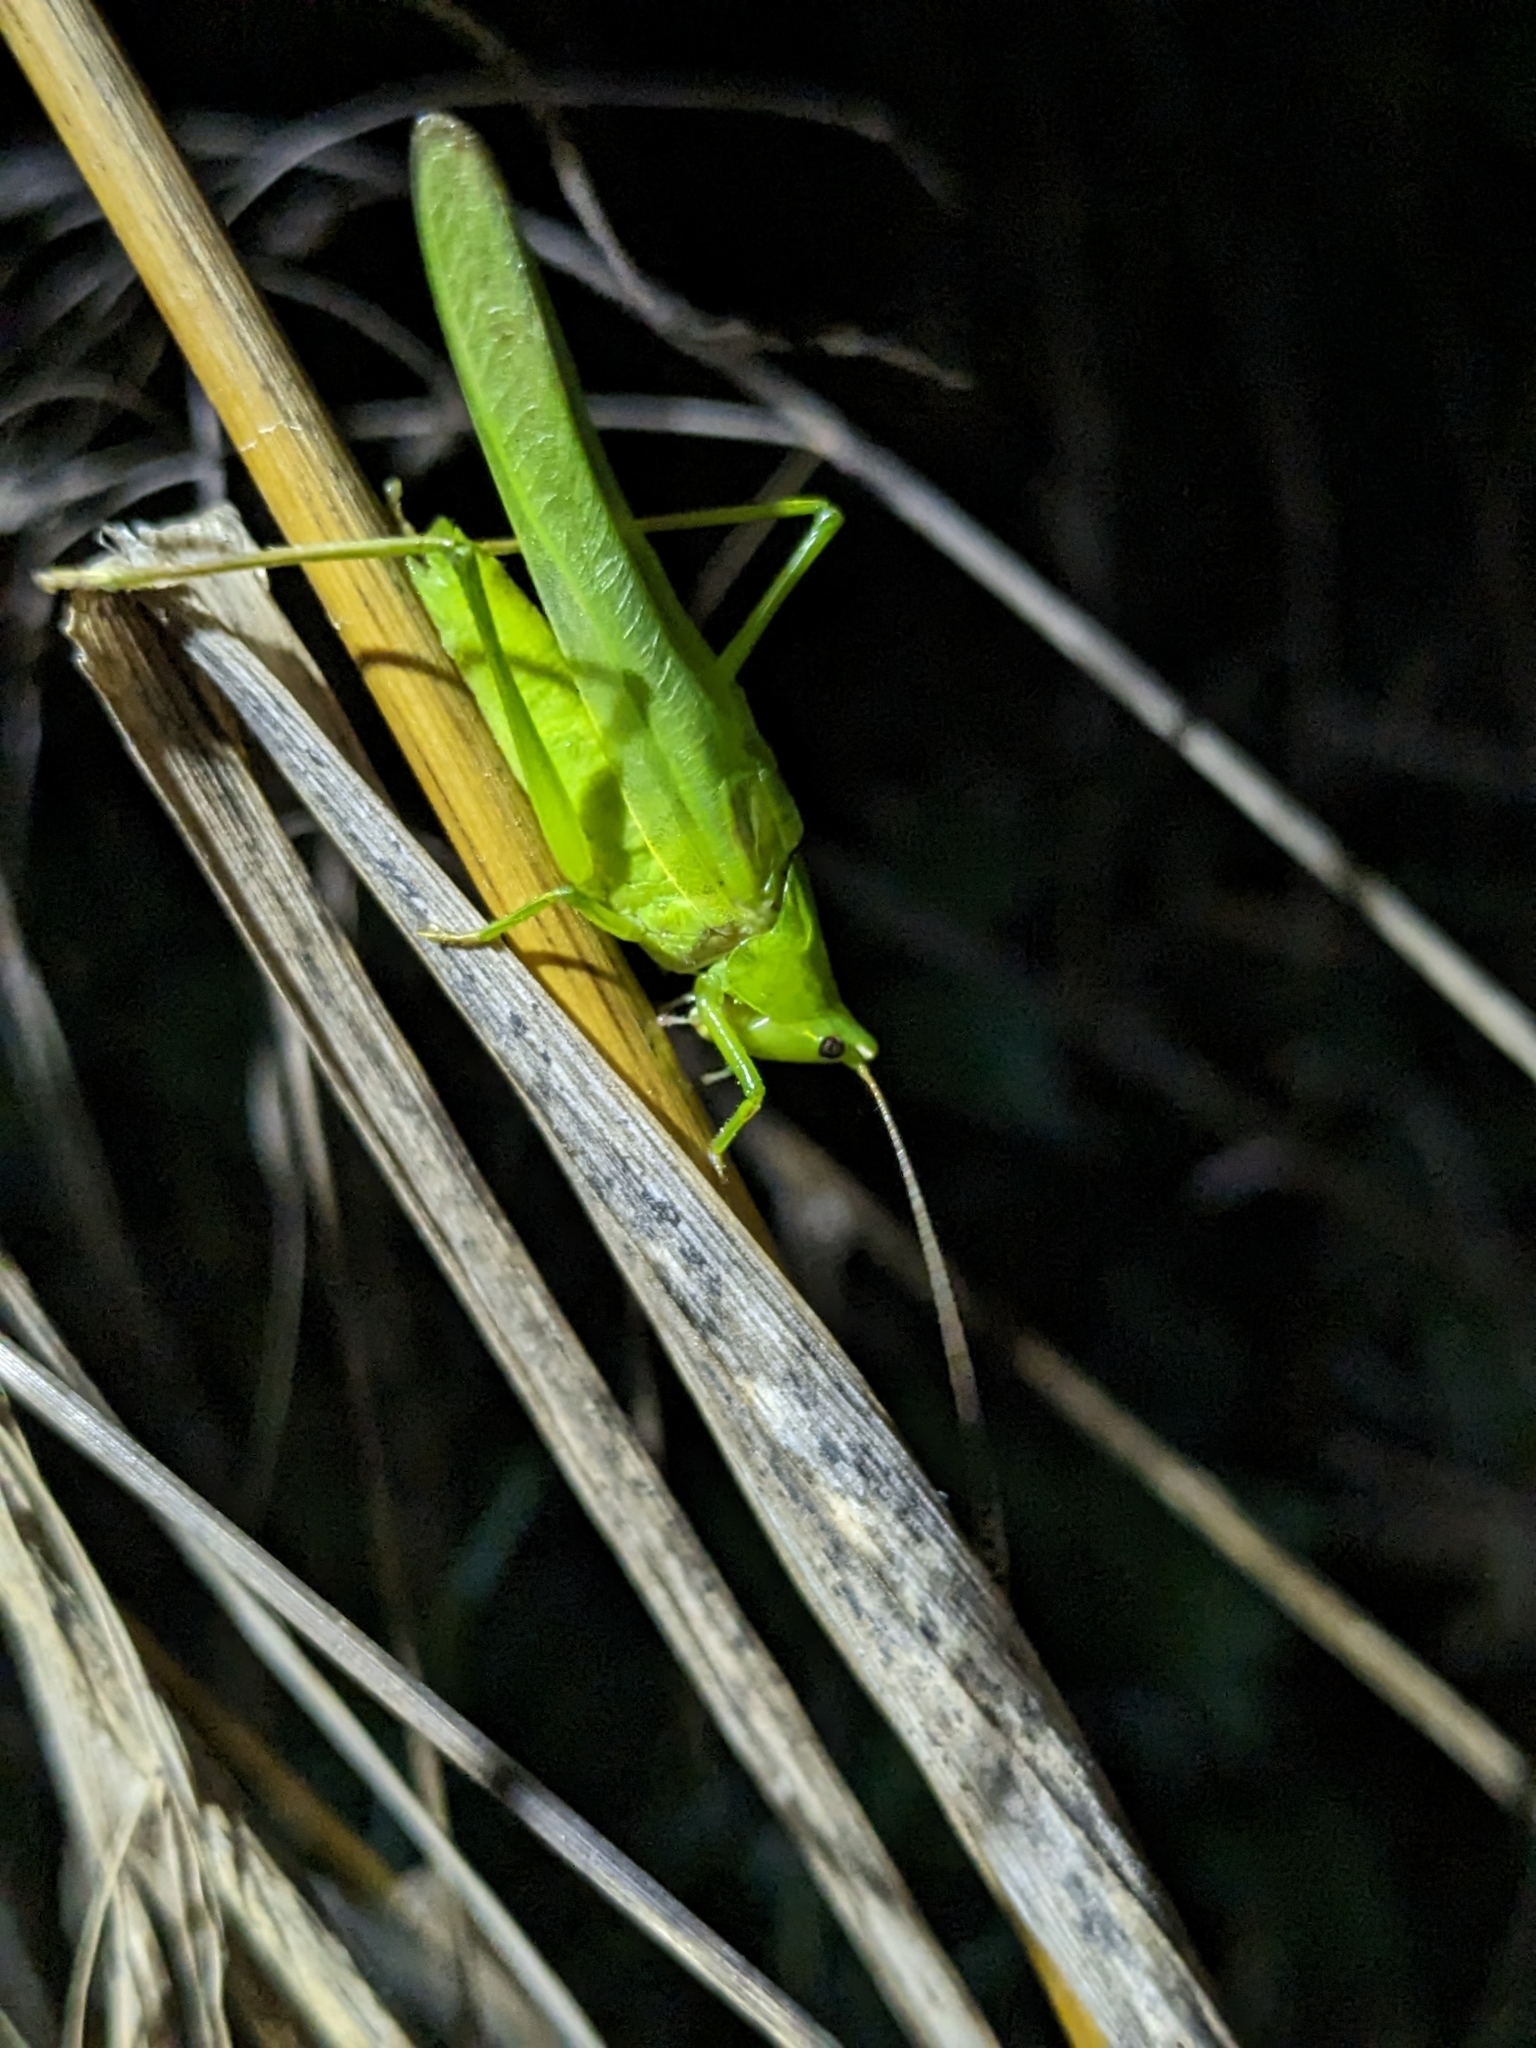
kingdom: Animalia
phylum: Arthropoda
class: Insecta
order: Orthoptera
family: Tettigoniidae
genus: Ruspolia
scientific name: Ruspolia nitidula
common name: Large conehead
